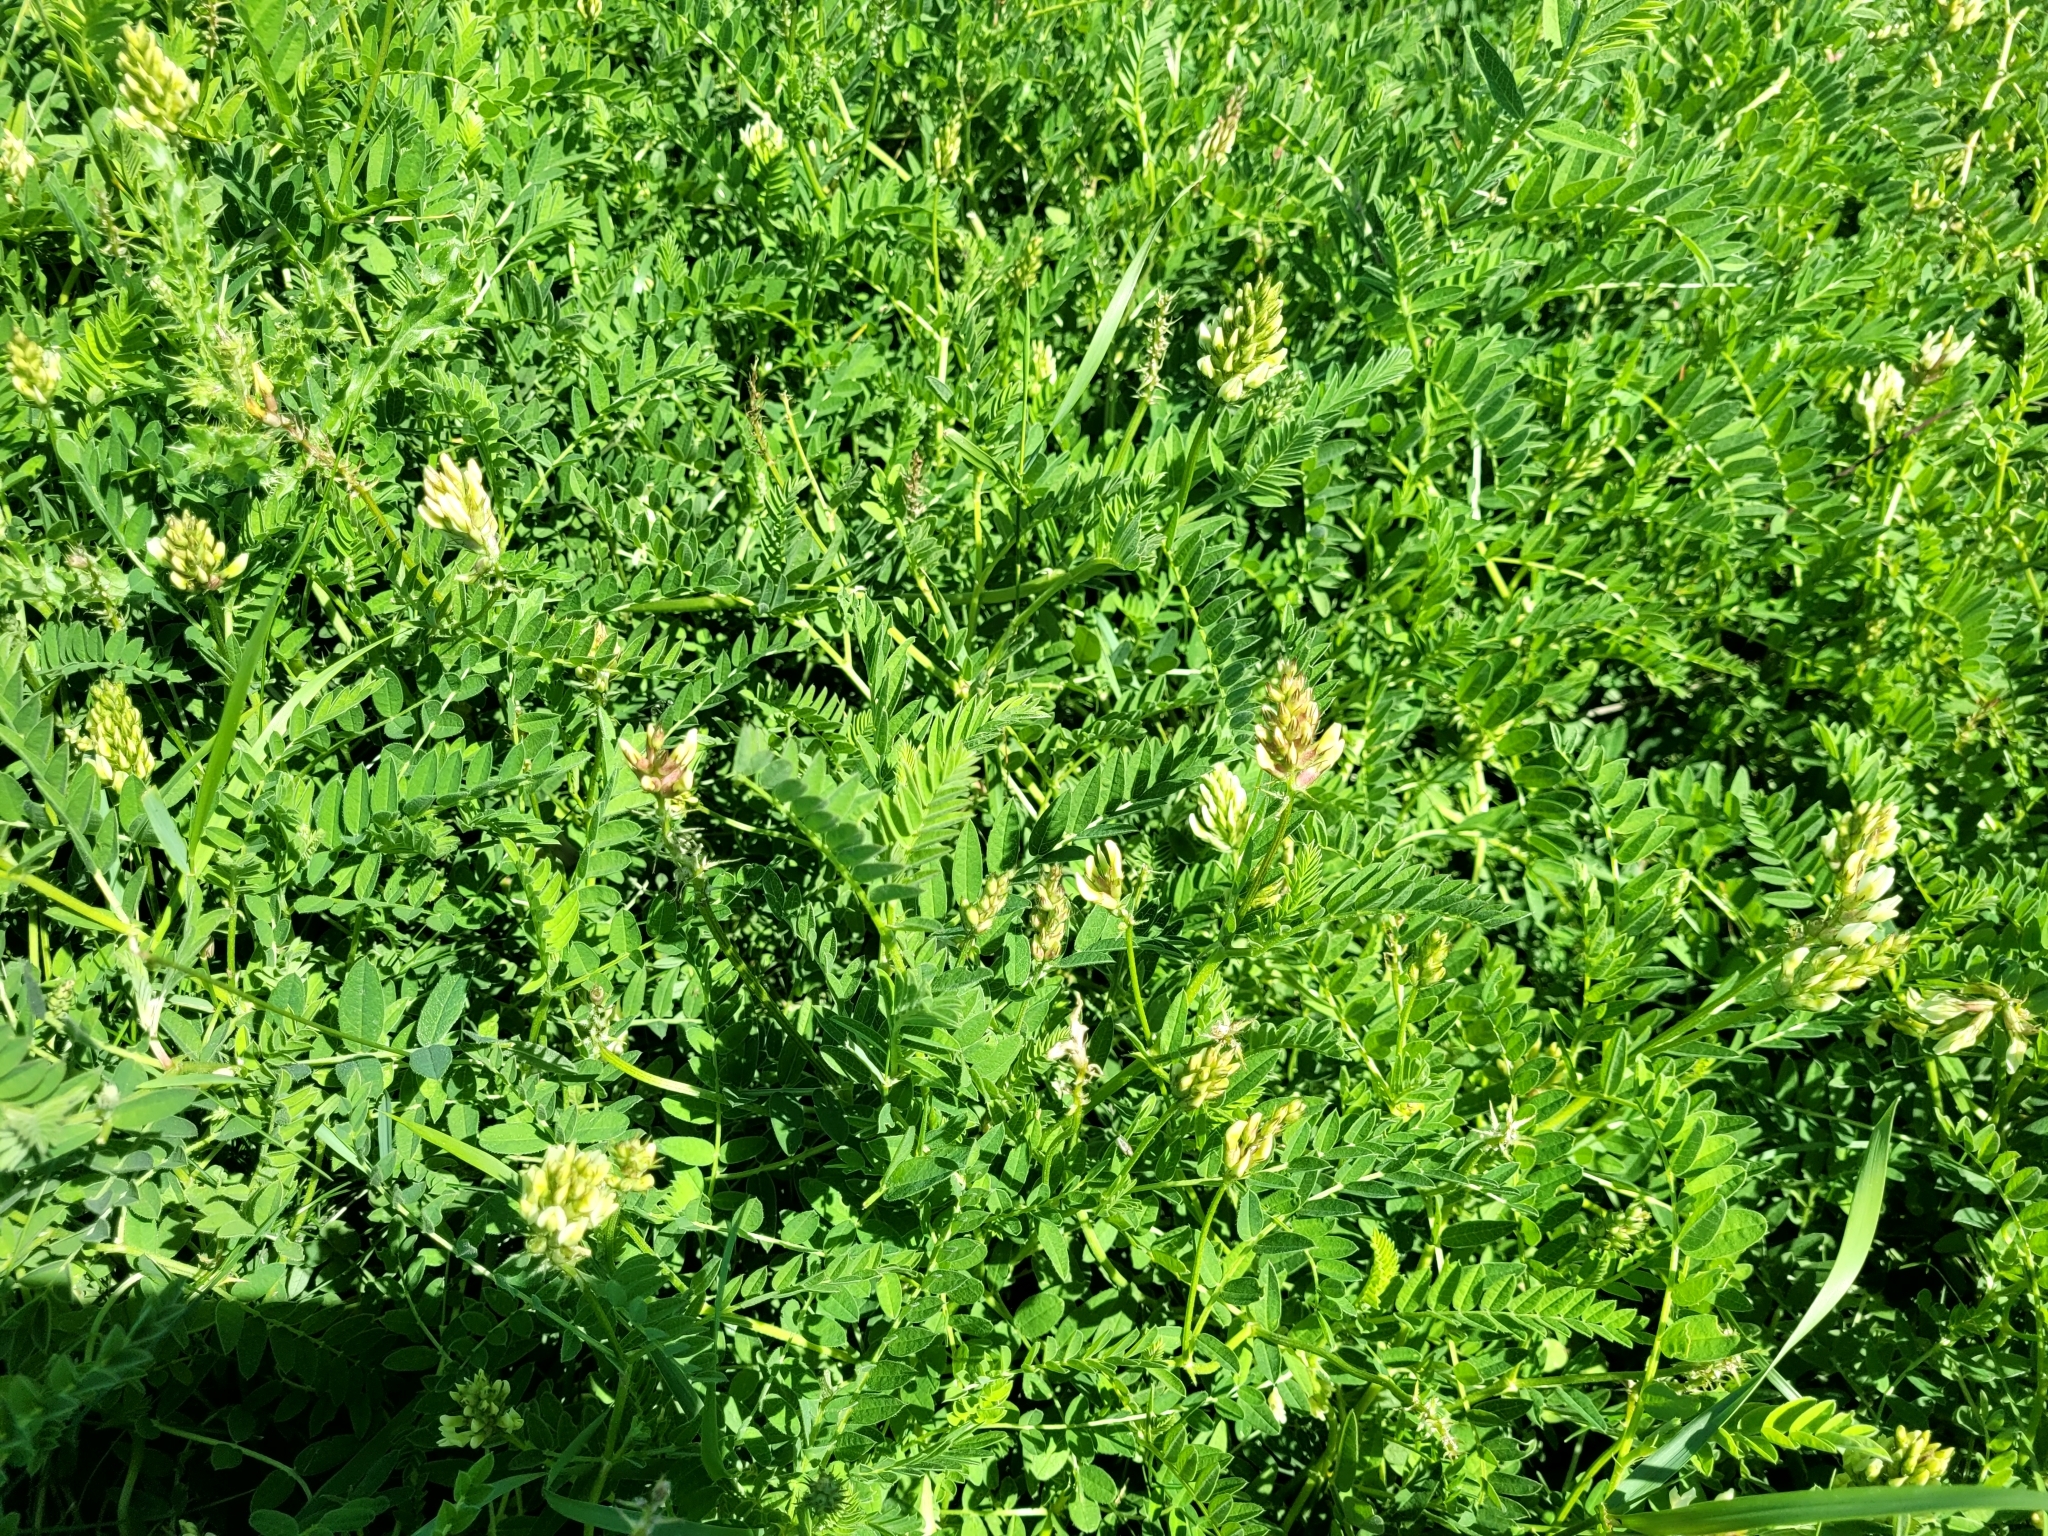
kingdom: Plantae
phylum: Tracheophyta
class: Magnoliopsida
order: Fabales
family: Fabaceae
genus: Astragalus
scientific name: Astragalus cicer
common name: Chick-pea milk-vetch
